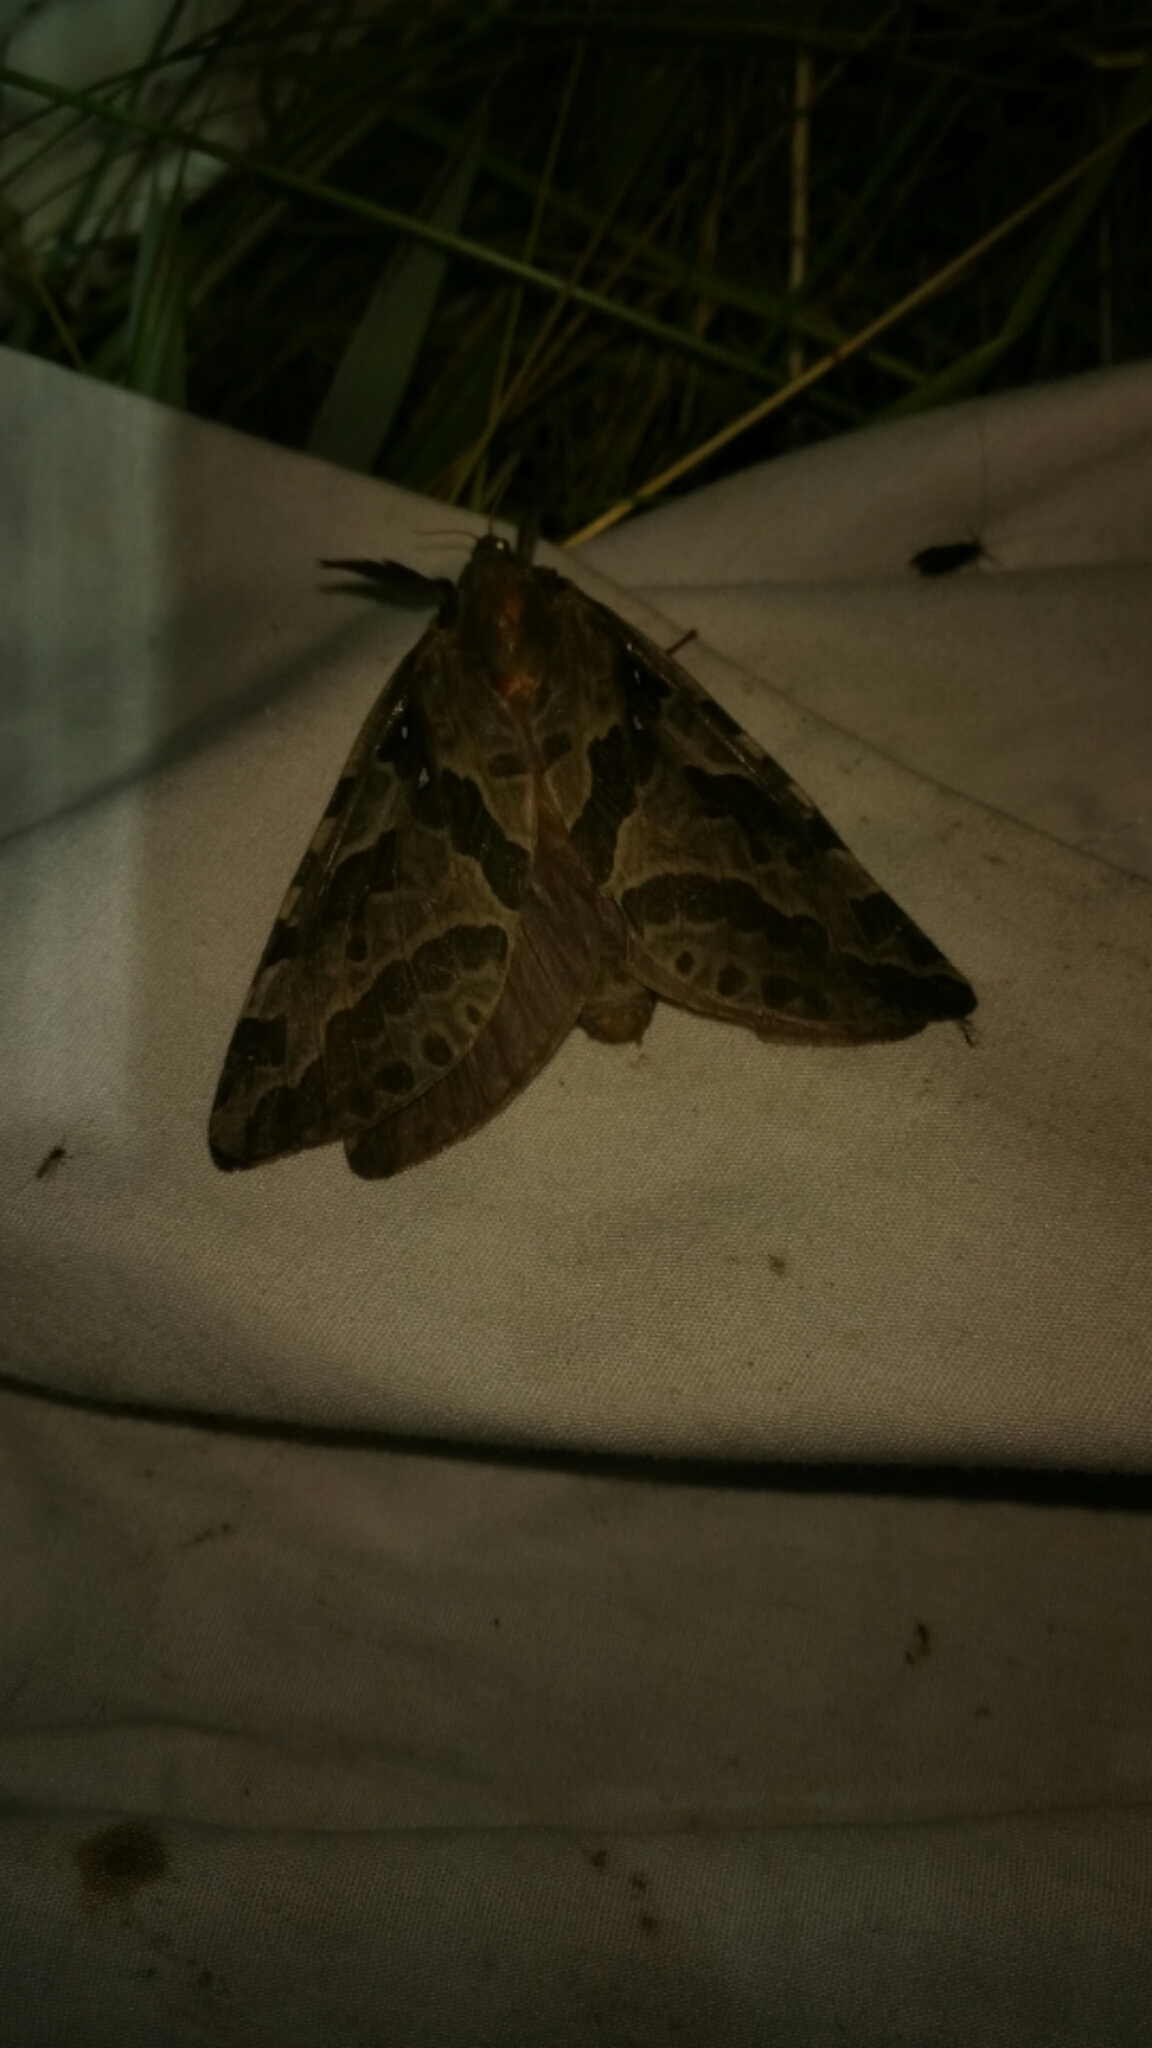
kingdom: Animalia
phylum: Arthropoda
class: Insecta
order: Lepidoptera
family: Hepialidae
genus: Sthenopis
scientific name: Sthenopis purpurascens
